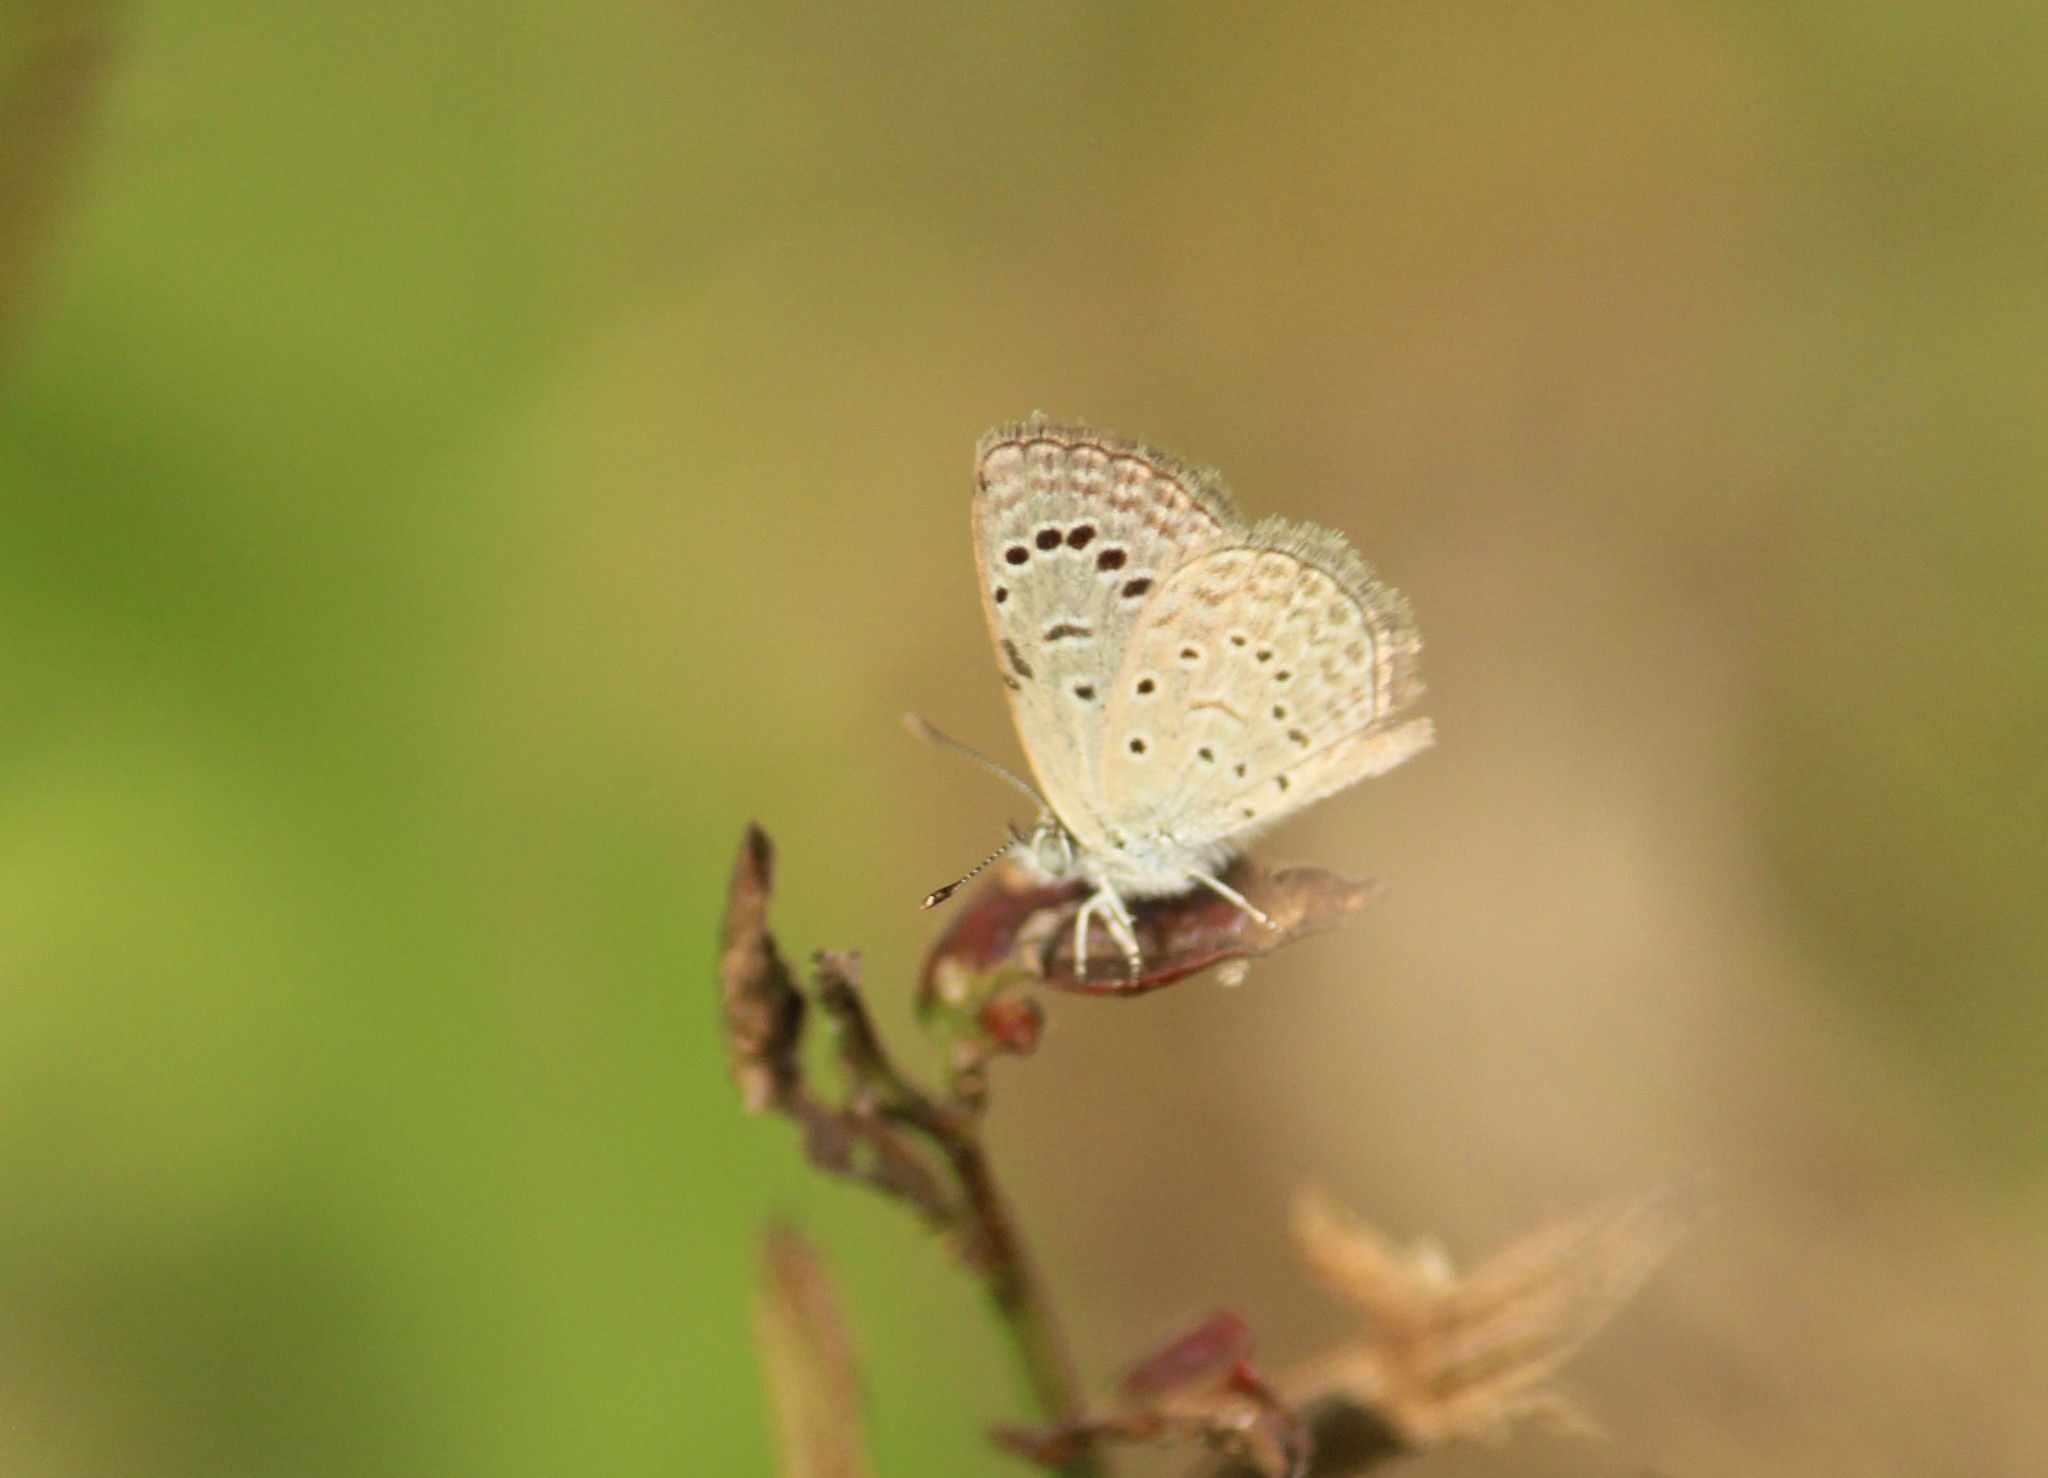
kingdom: Animalia
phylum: Arthropoda
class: Insecta
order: Lepidoptera
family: Lycaenidae
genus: Zizeeria
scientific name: Zizeeria karsandra
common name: Dark grass blue
